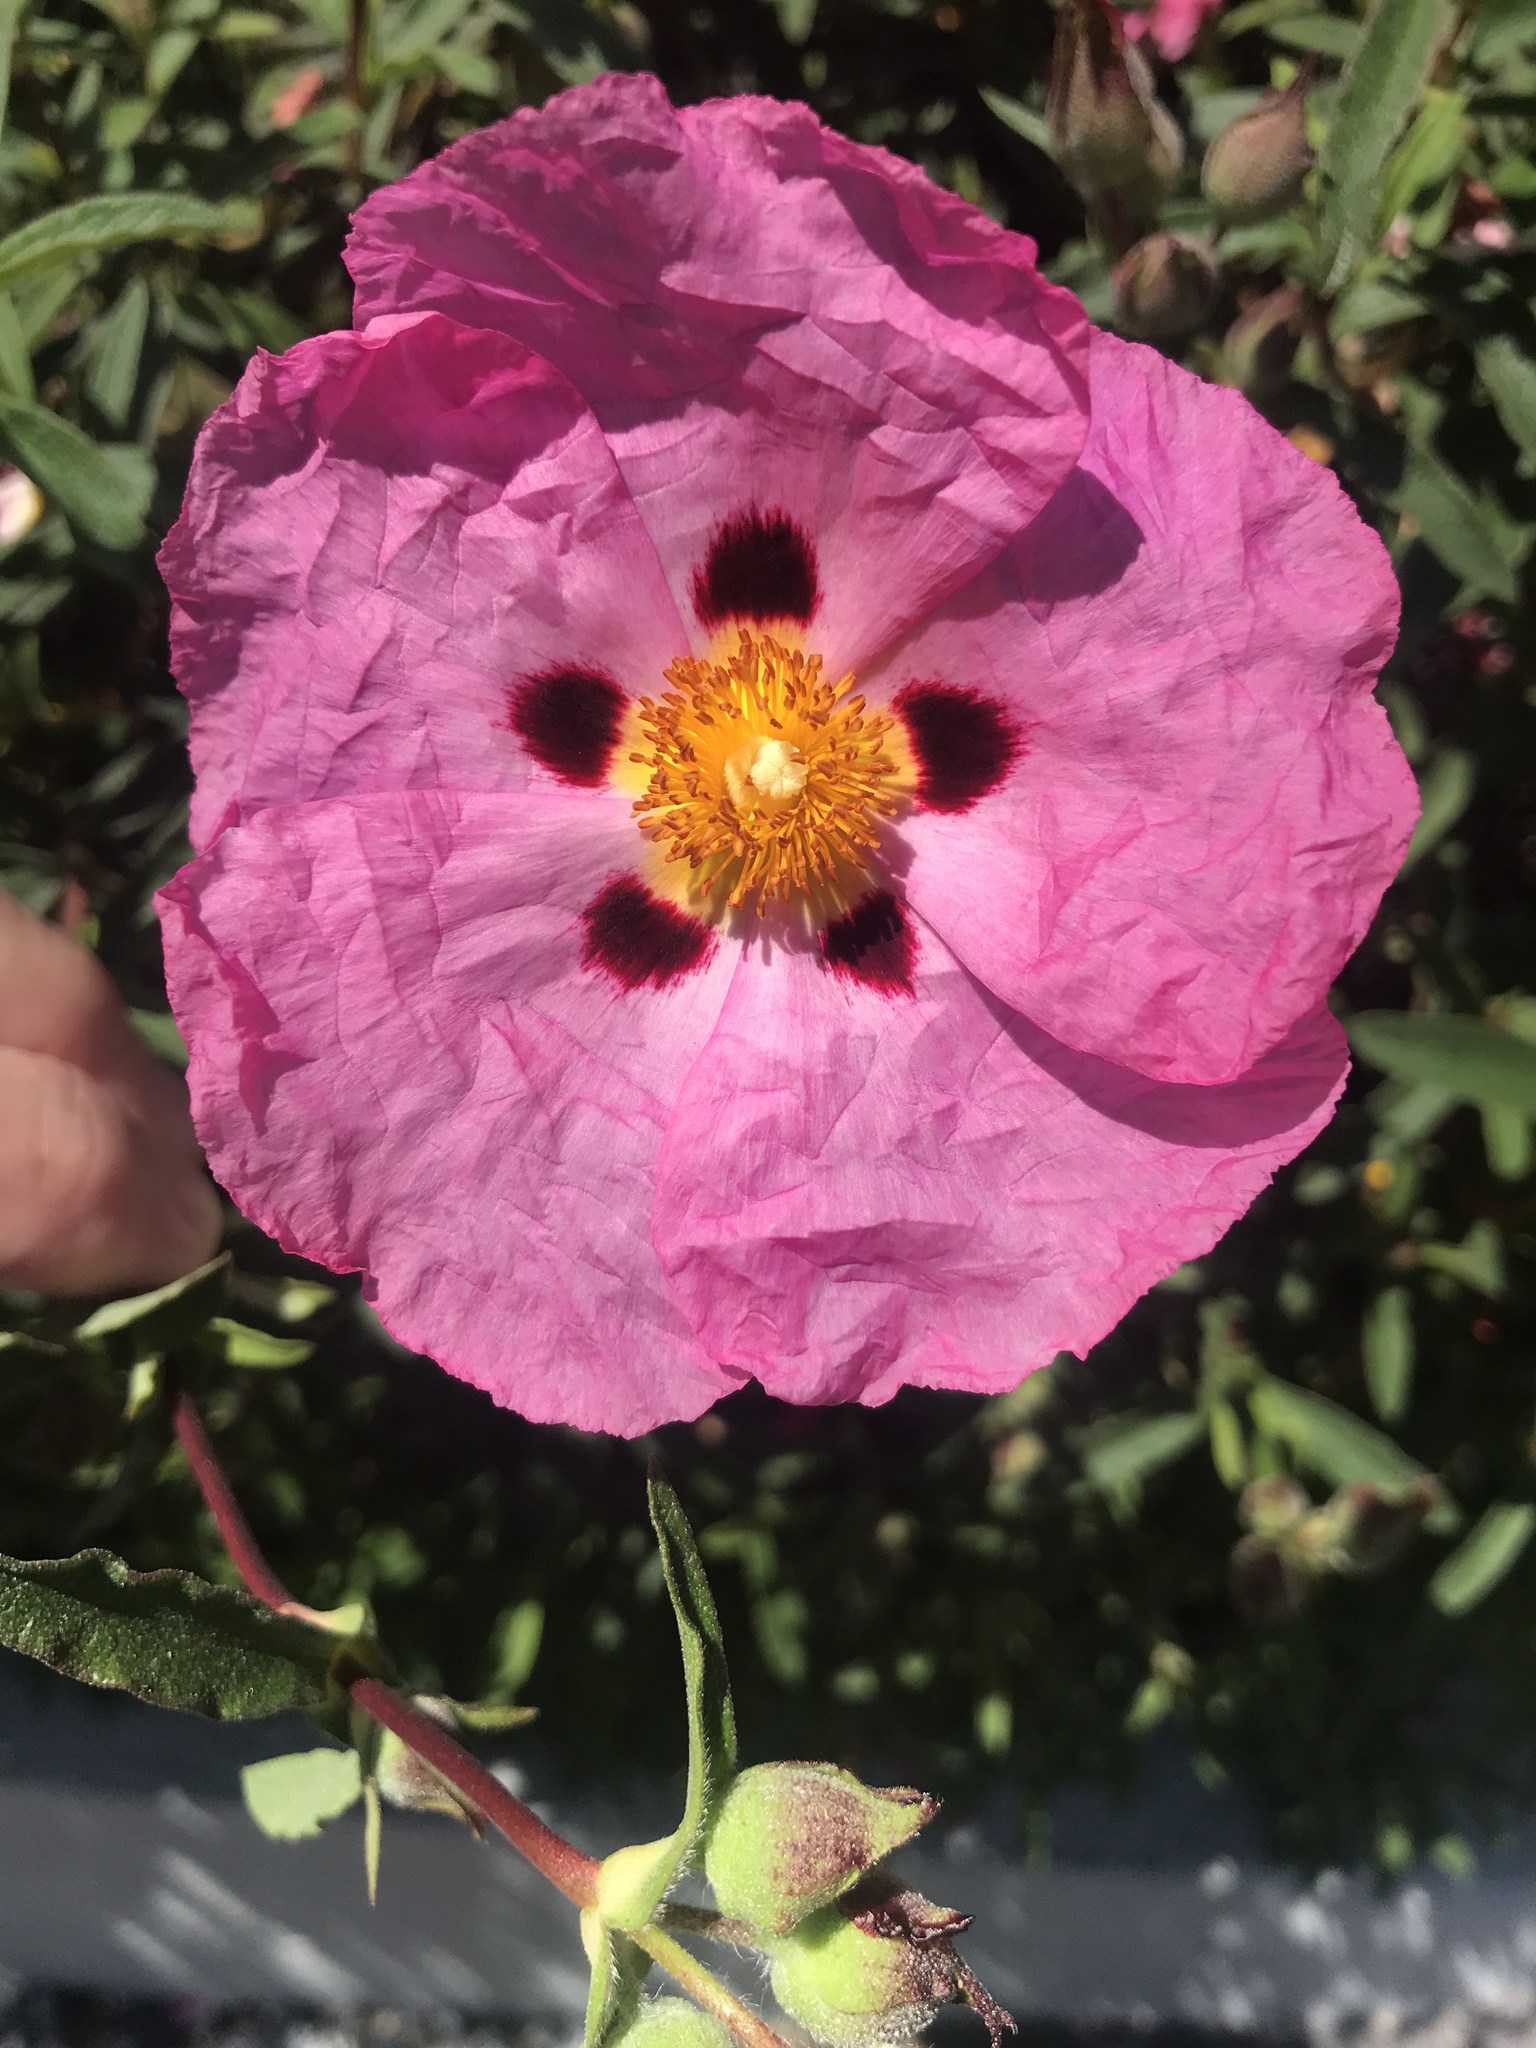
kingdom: Plantae
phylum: Tracheophyta
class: Magnoliopsida
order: Malvales
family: Cistaceae
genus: Cistus
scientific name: Cistus purpureus
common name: Purple cistus
